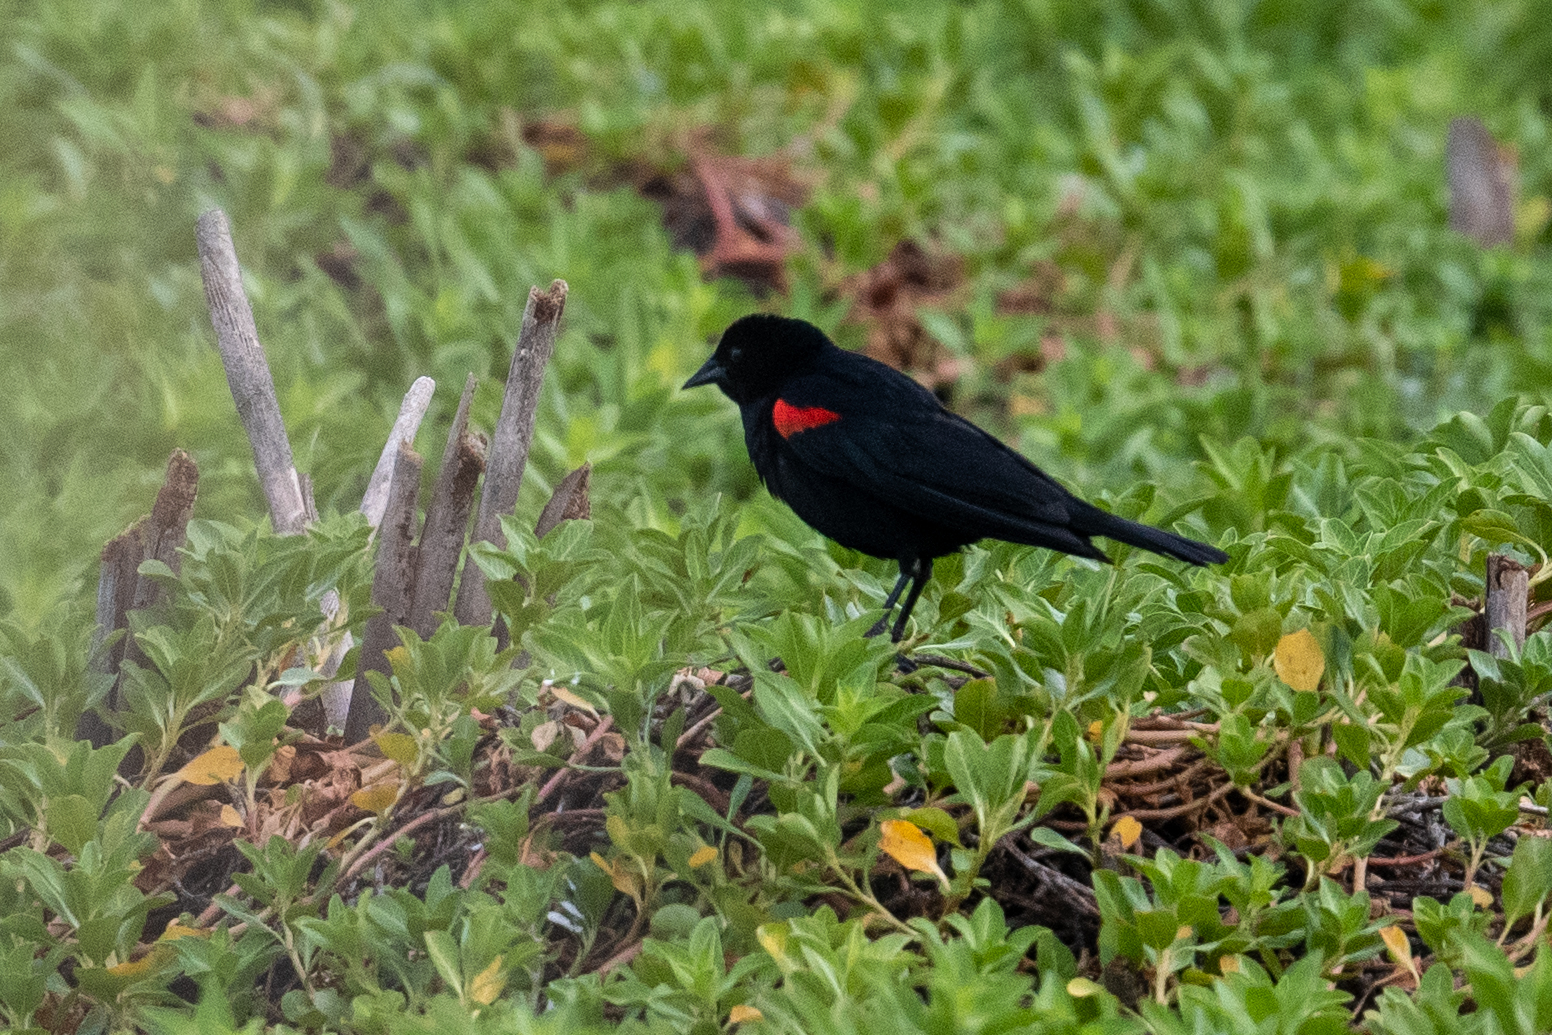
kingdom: Animalia
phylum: Chordata
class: Aves
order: Passeriformes
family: Icteridae
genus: Agelaius
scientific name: Agelaius phoeniceus
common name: Red-winged blackbird
